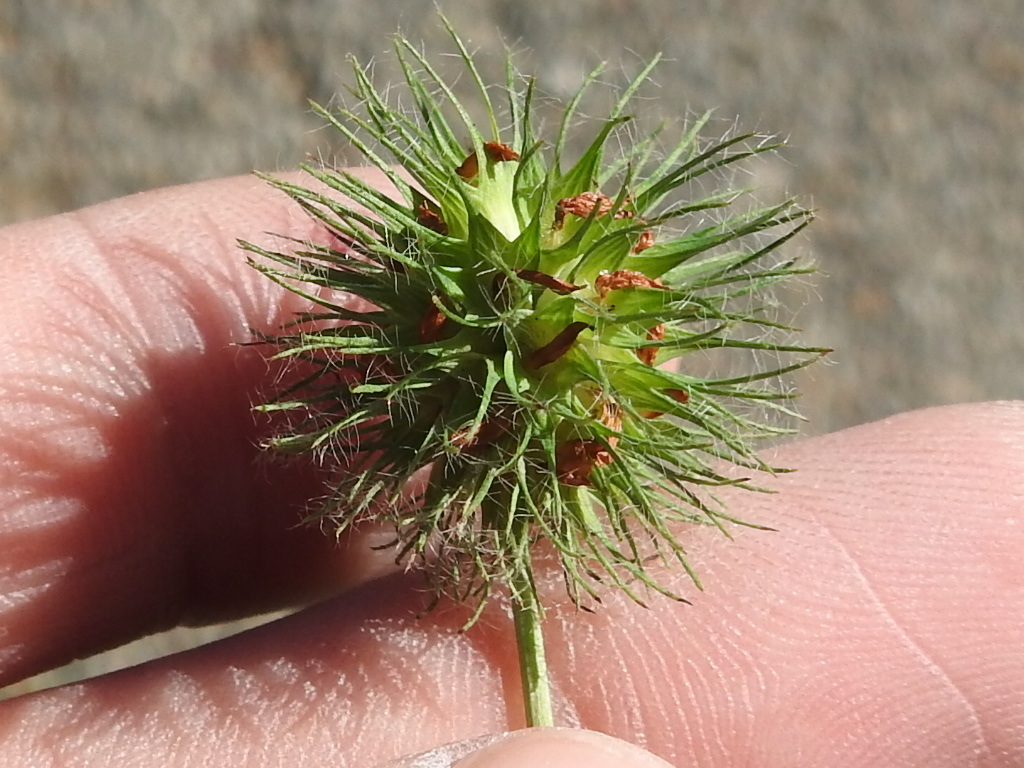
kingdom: Plantae
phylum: Tracheophyta
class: Magnoliopsida
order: Fabales
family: Fabaceae
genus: Trifolium
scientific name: Trifolium lappaceum
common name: Bur clover
